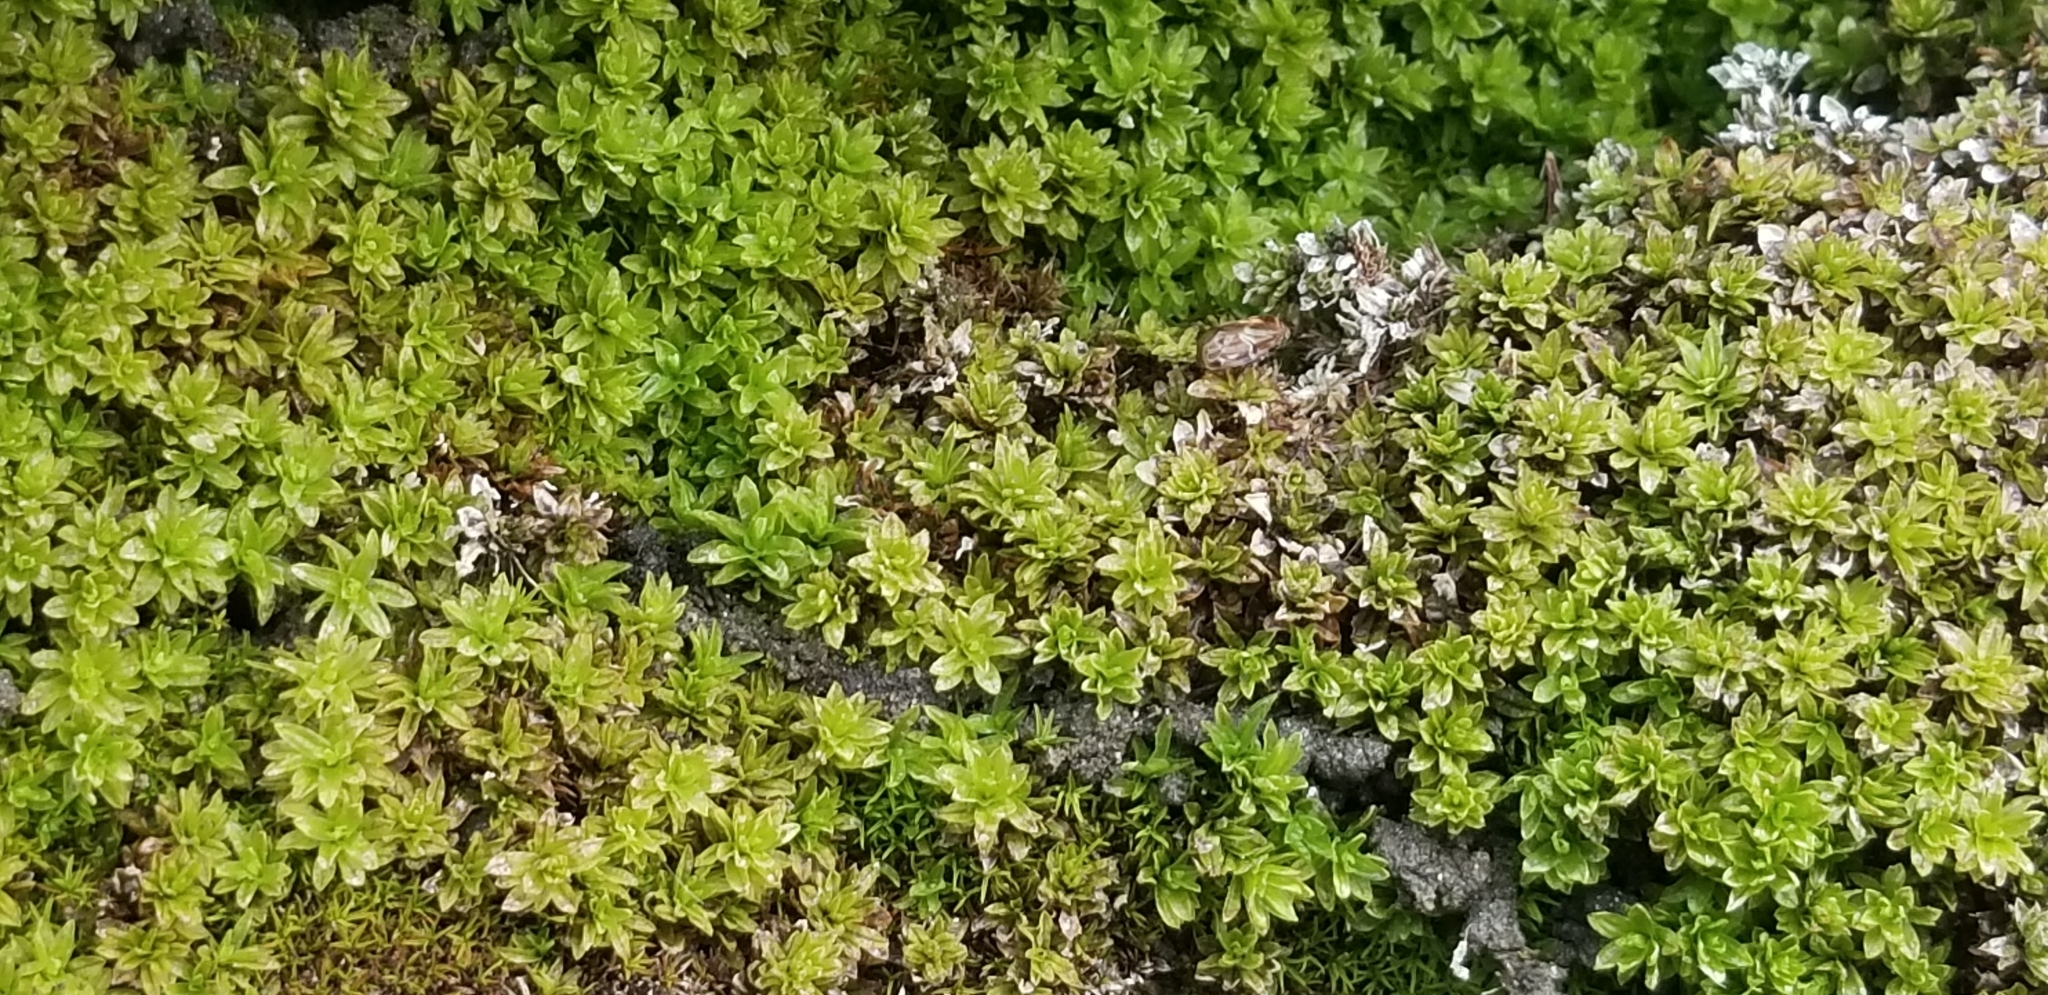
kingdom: Plantae
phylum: Bryophyta
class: Bryopsida
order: Encalyptales
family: Encalyptaceae
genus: Encalypta
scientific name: Encalypta procera
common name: Spiral extinguisher moss
